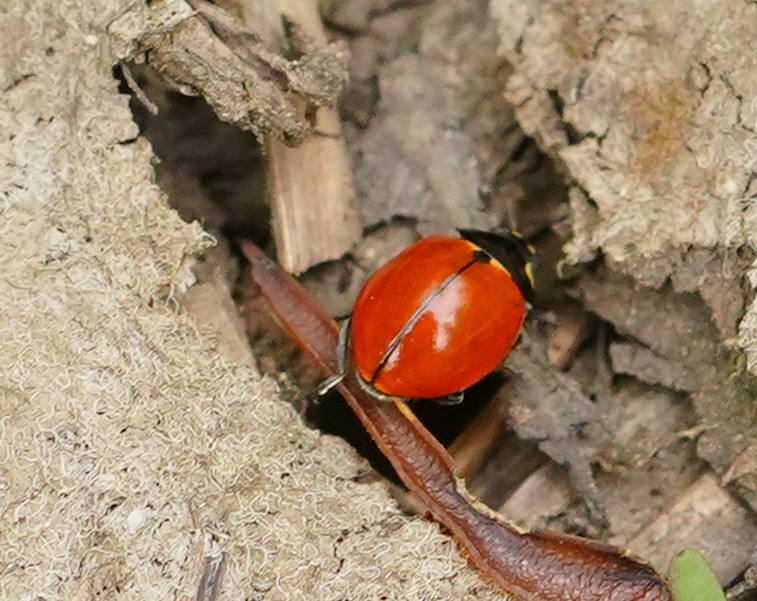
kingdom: Animalia
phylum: Arthropoda
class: Insecta
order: Coleoptera
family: Coccinellidae
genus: Coccinella
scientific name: Coccinella californica
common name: Lady beetle
